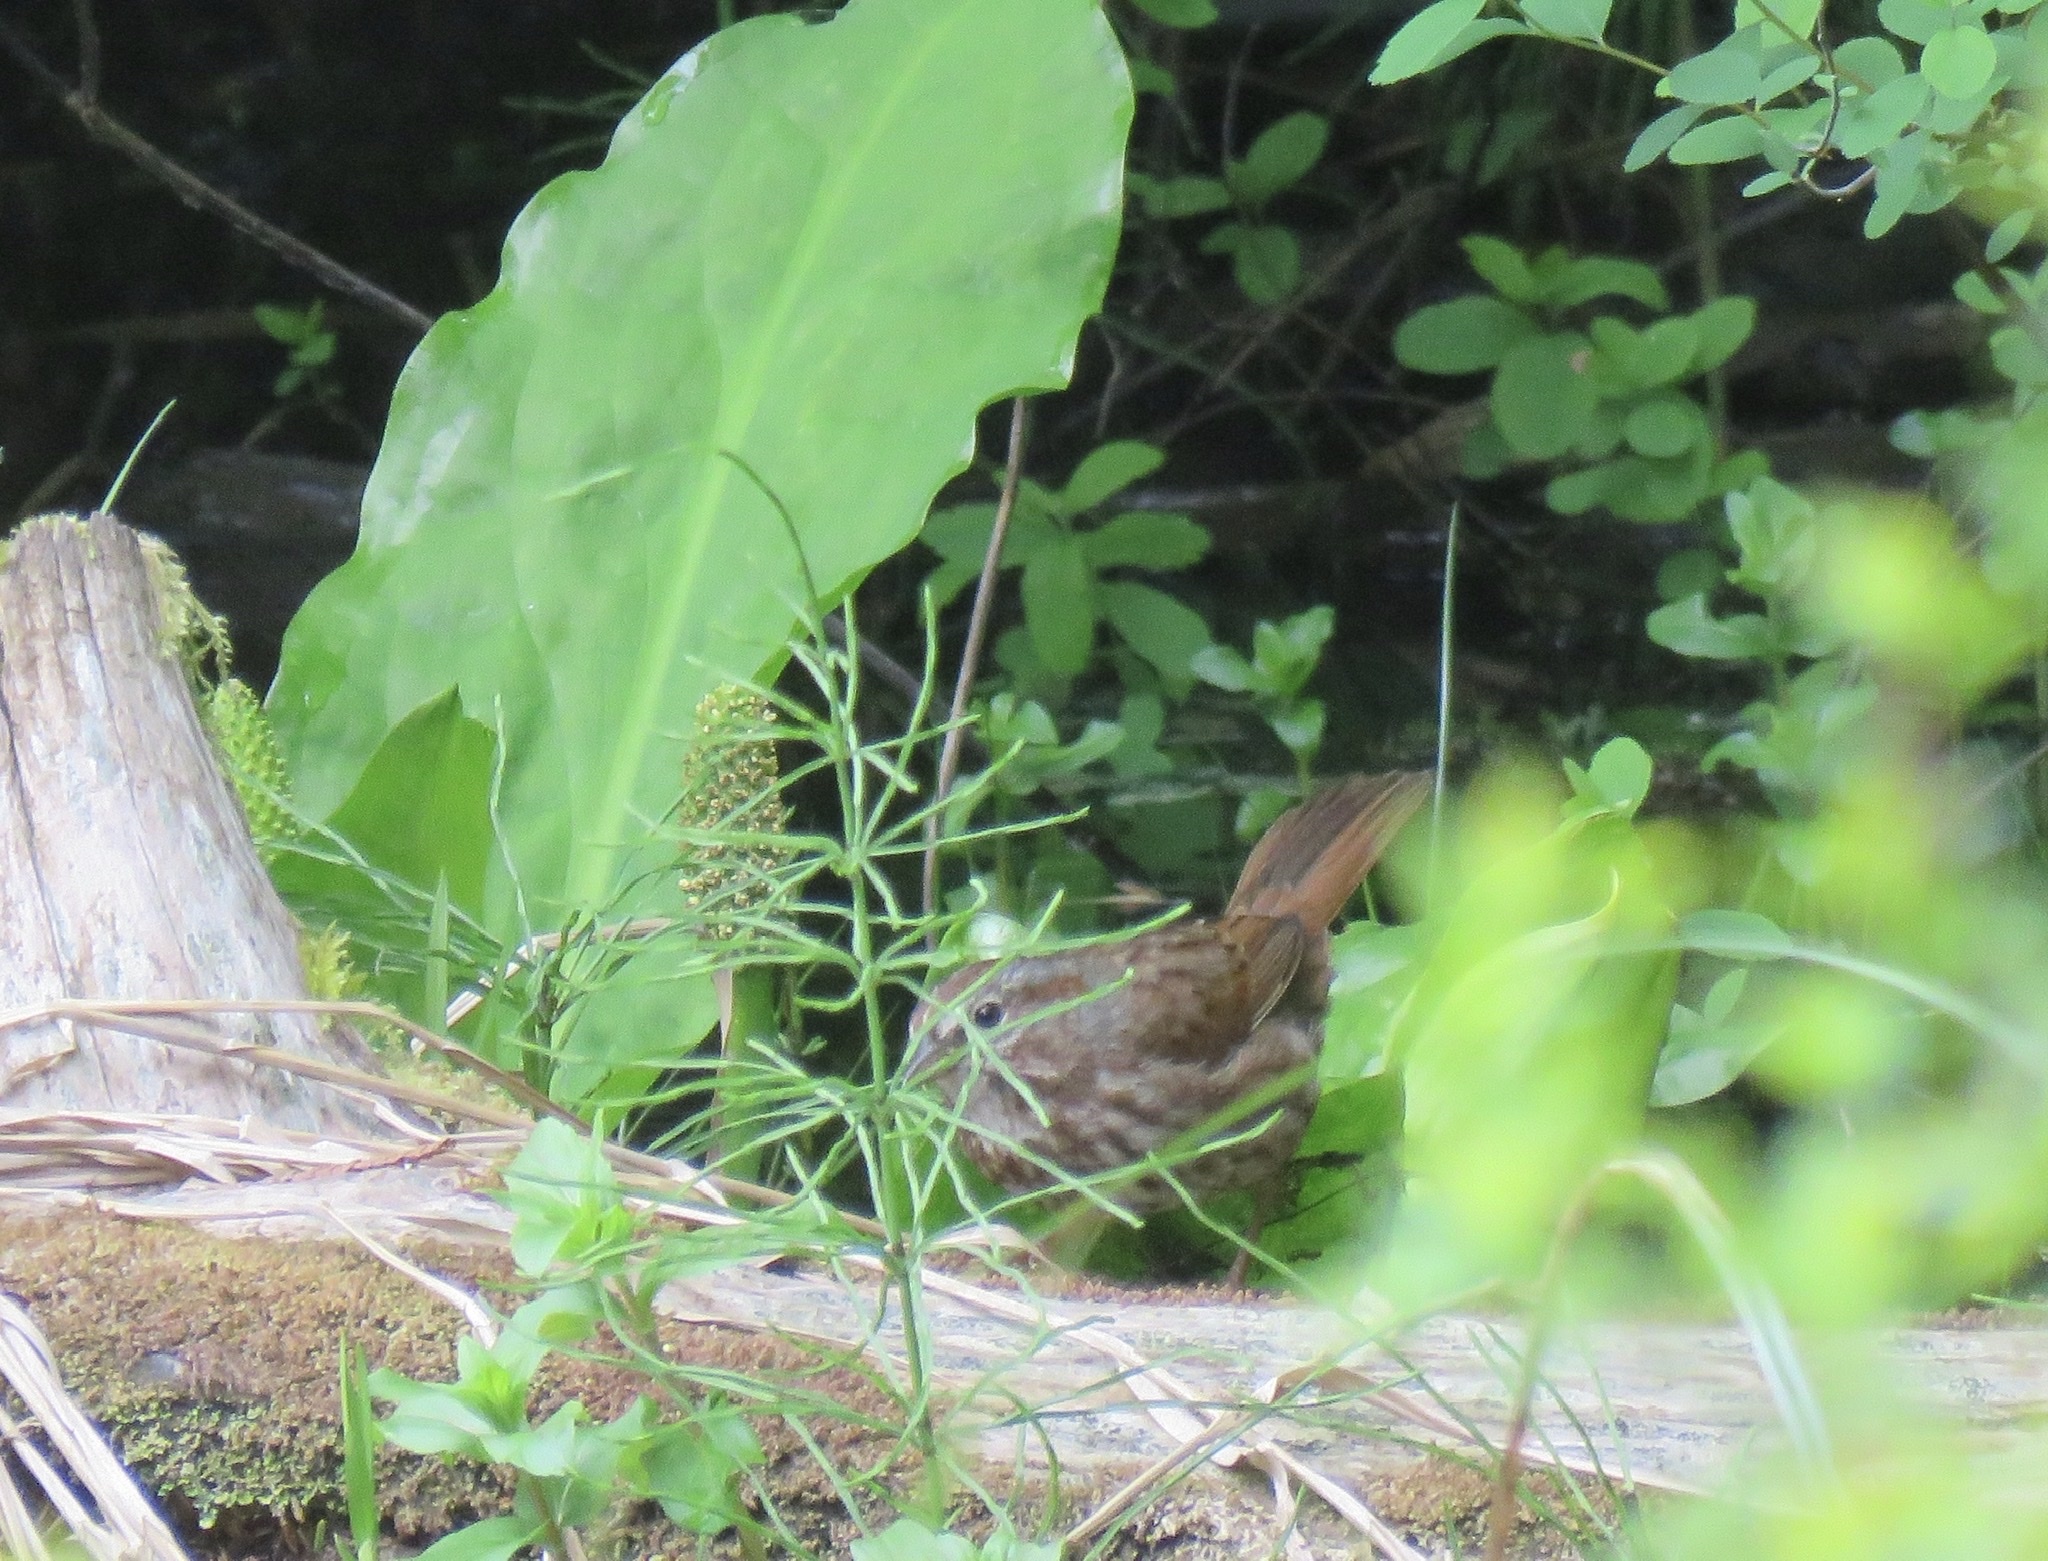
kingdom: Animalia
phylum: Chordata
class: Aves
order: Passeriformes
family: Passerellidae
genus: Melospiza
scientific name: Melospiza melodia
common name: Song sparrow
